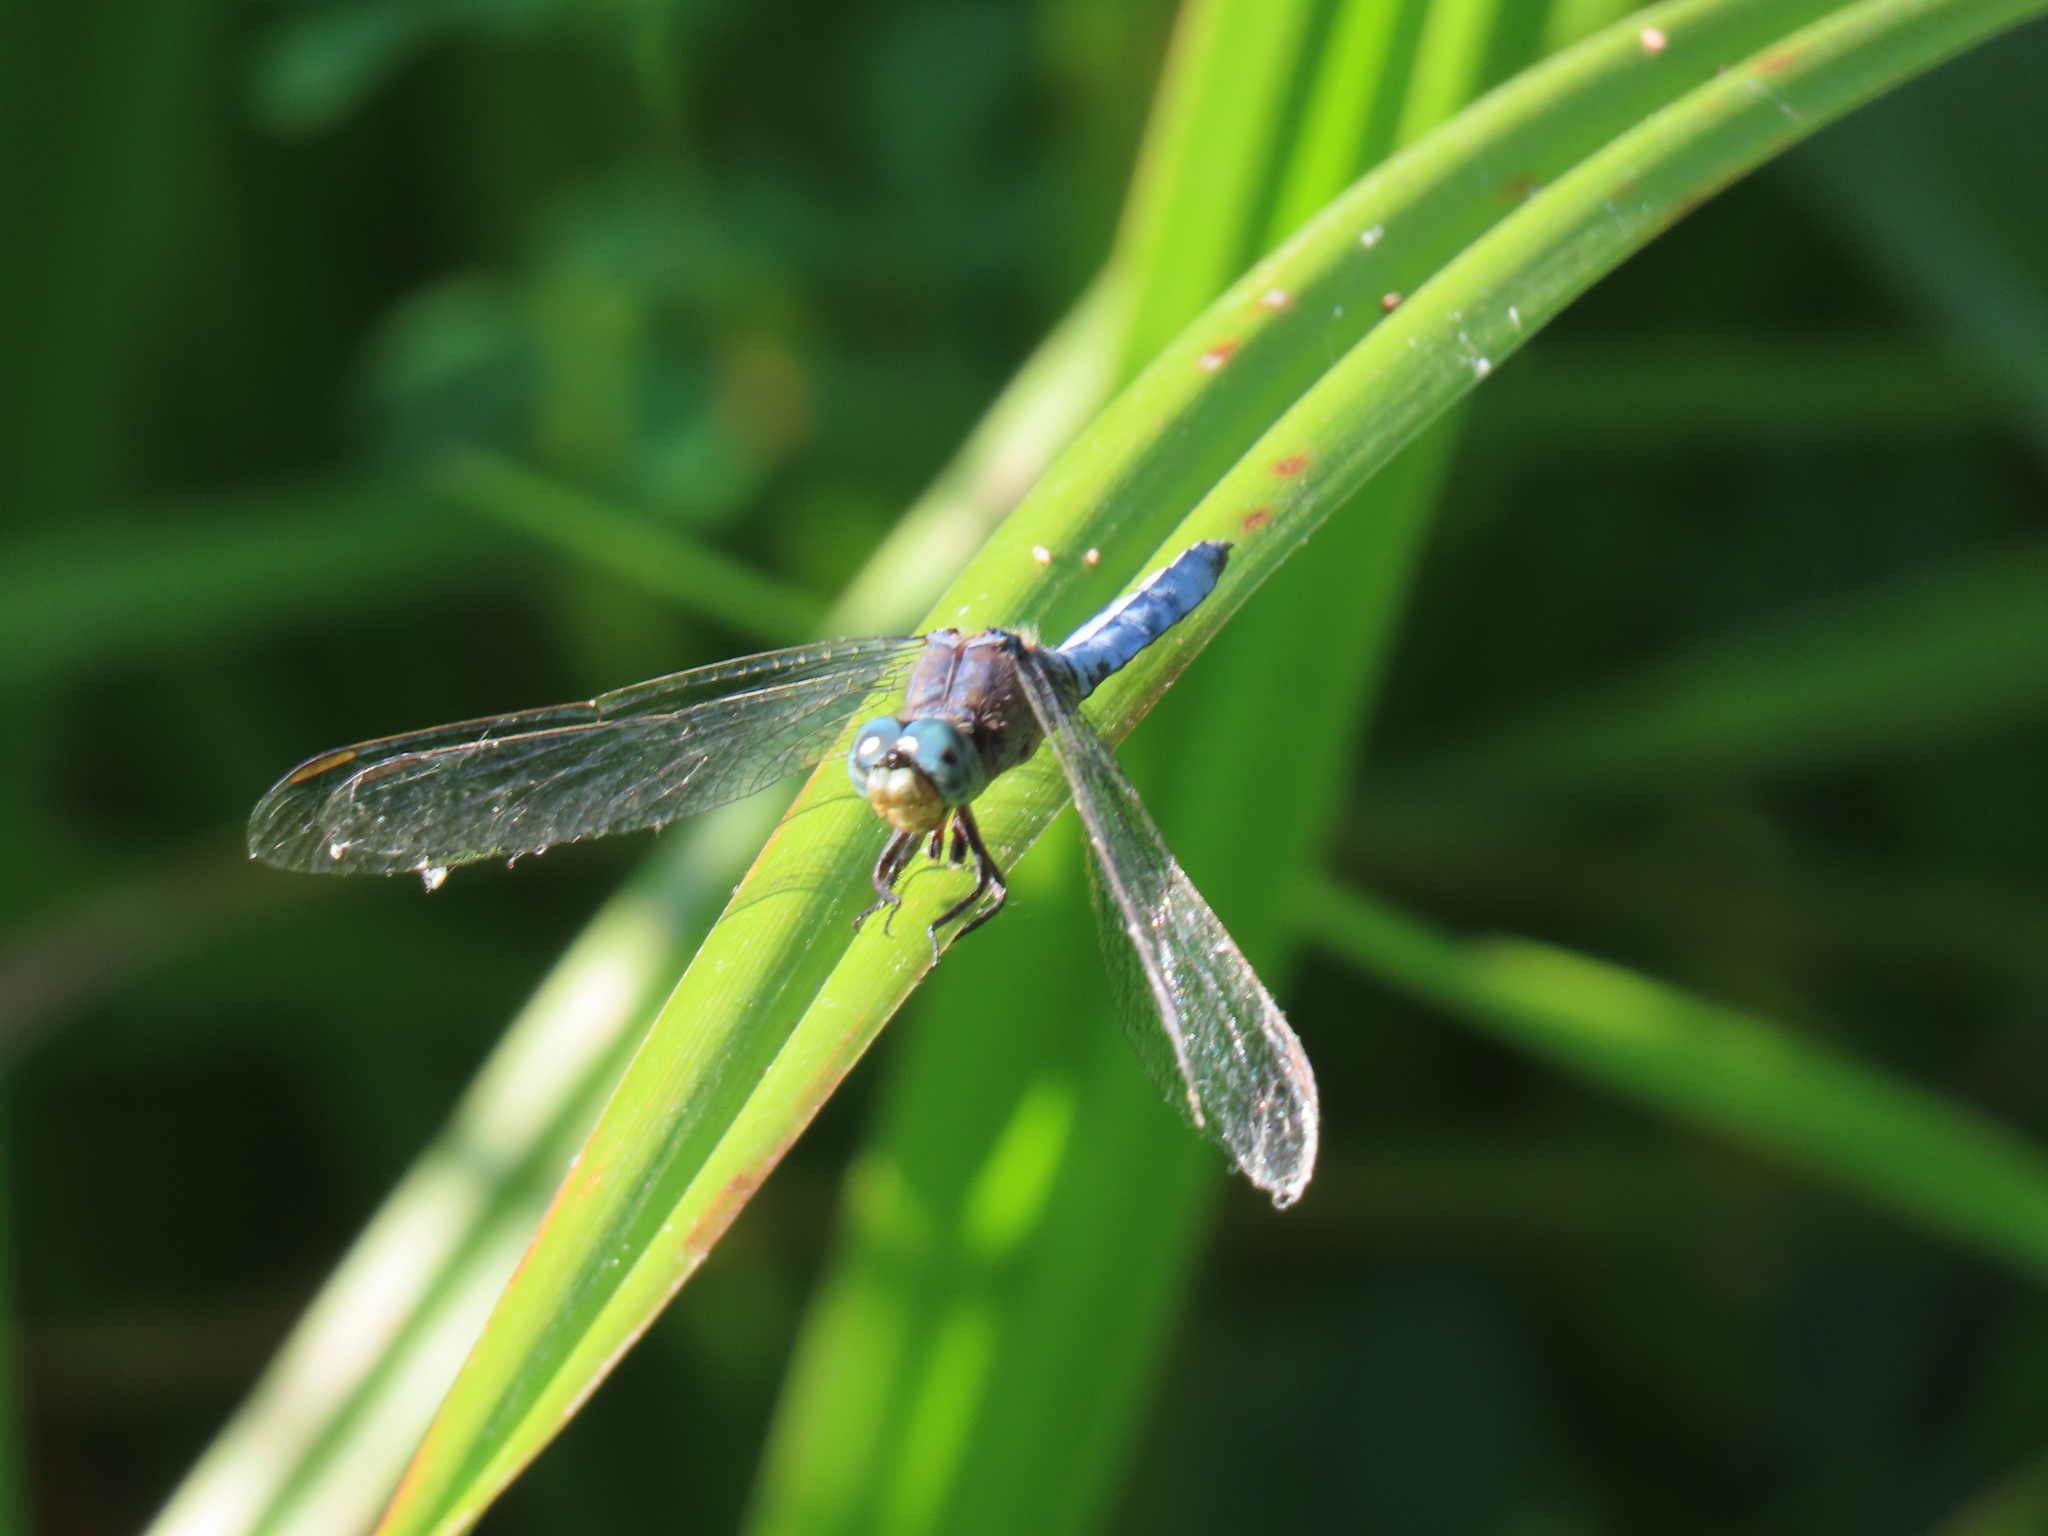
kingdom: Animalia
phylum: Arthropoda
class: Insecta
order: Odonata
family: Libellulidae
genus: Orthetrum
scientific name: Orthetrum coerulescens
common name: Keeled skimmer
